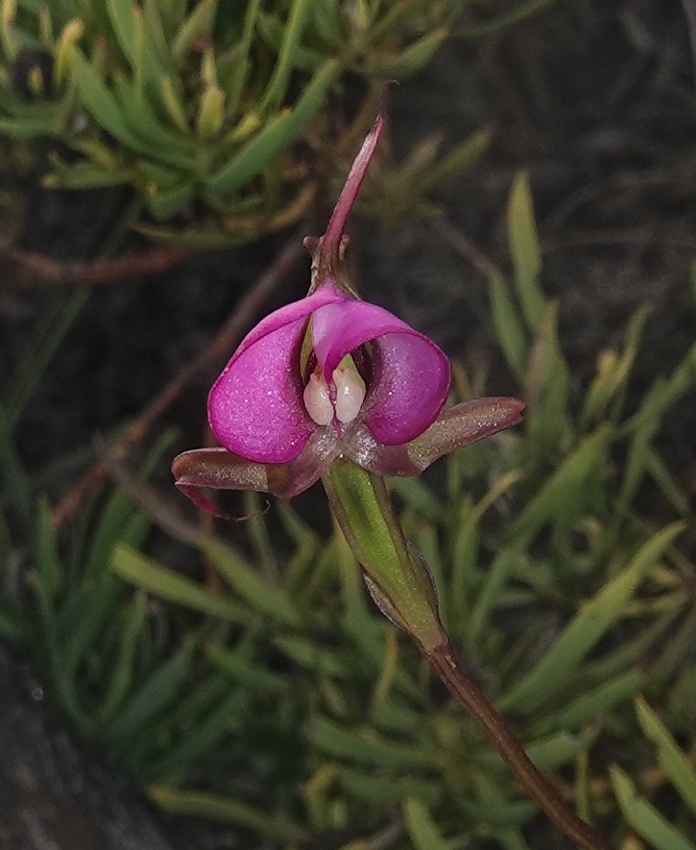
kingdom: Plantae
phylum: Tracheophyta
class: Liliopsida
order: Asparagales
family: Orchidaceae
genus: Disperis
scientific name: Disperis capensis
